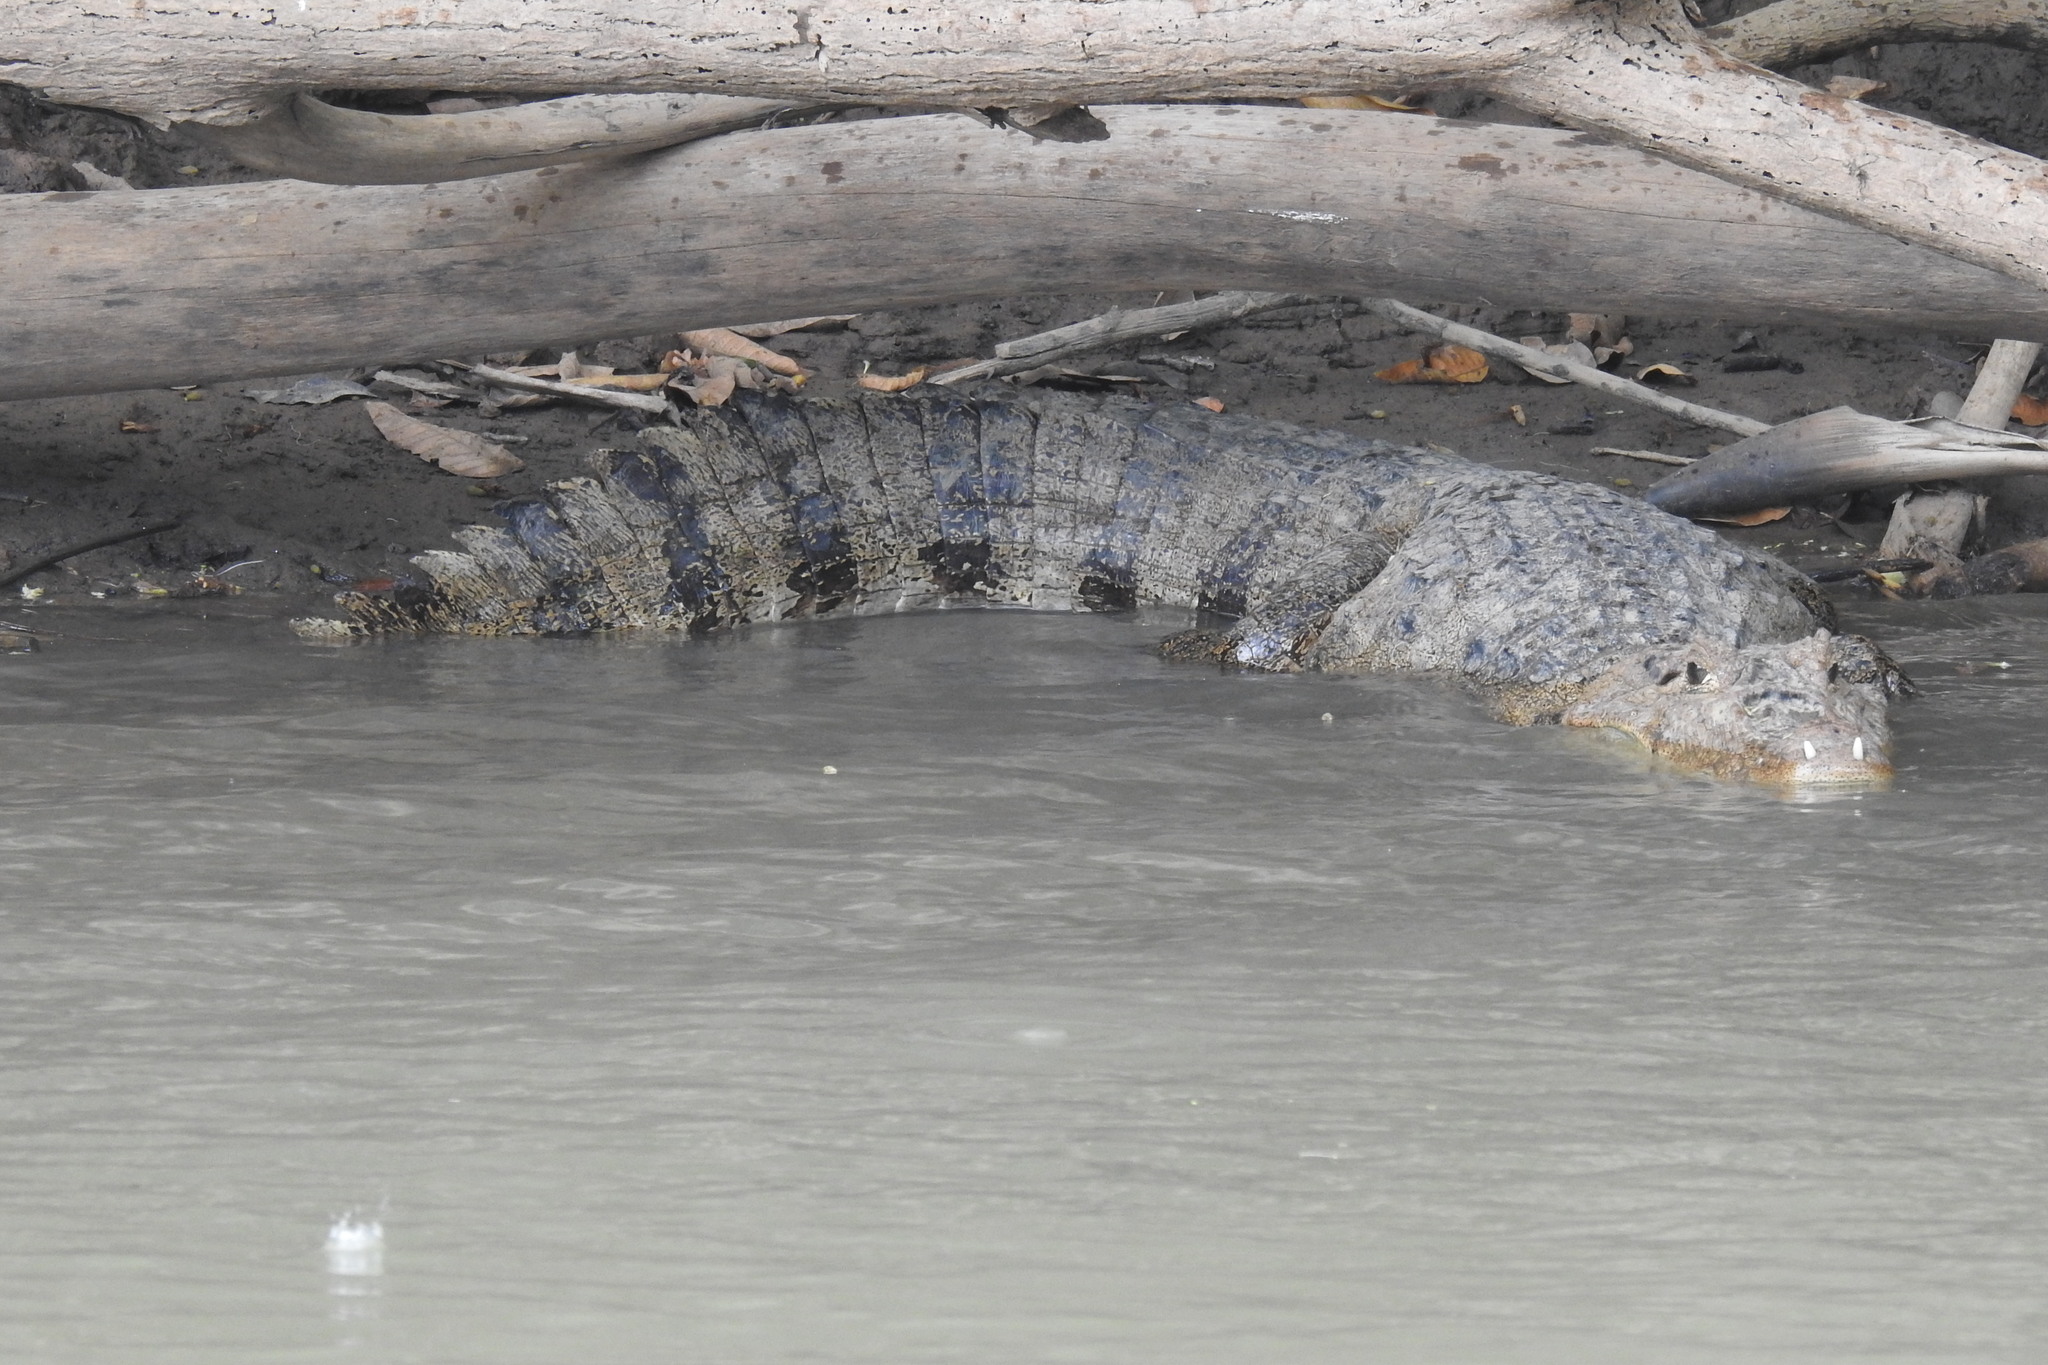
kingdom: Animalia
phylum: Chordata
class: Crocodylia
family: Alligatoridae
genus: Caiman
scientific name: Caiman crocodilus
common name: Common caiman
